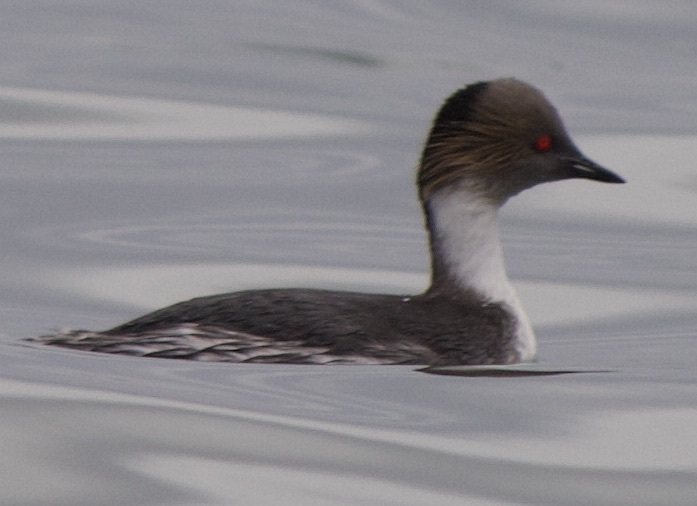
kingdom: Animalia
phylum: Chordata
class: Aves
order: Podicipediformes
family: Podicipedidae
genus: Podiceps
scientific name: Podiceps occipitalis
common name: Silvery grebe
